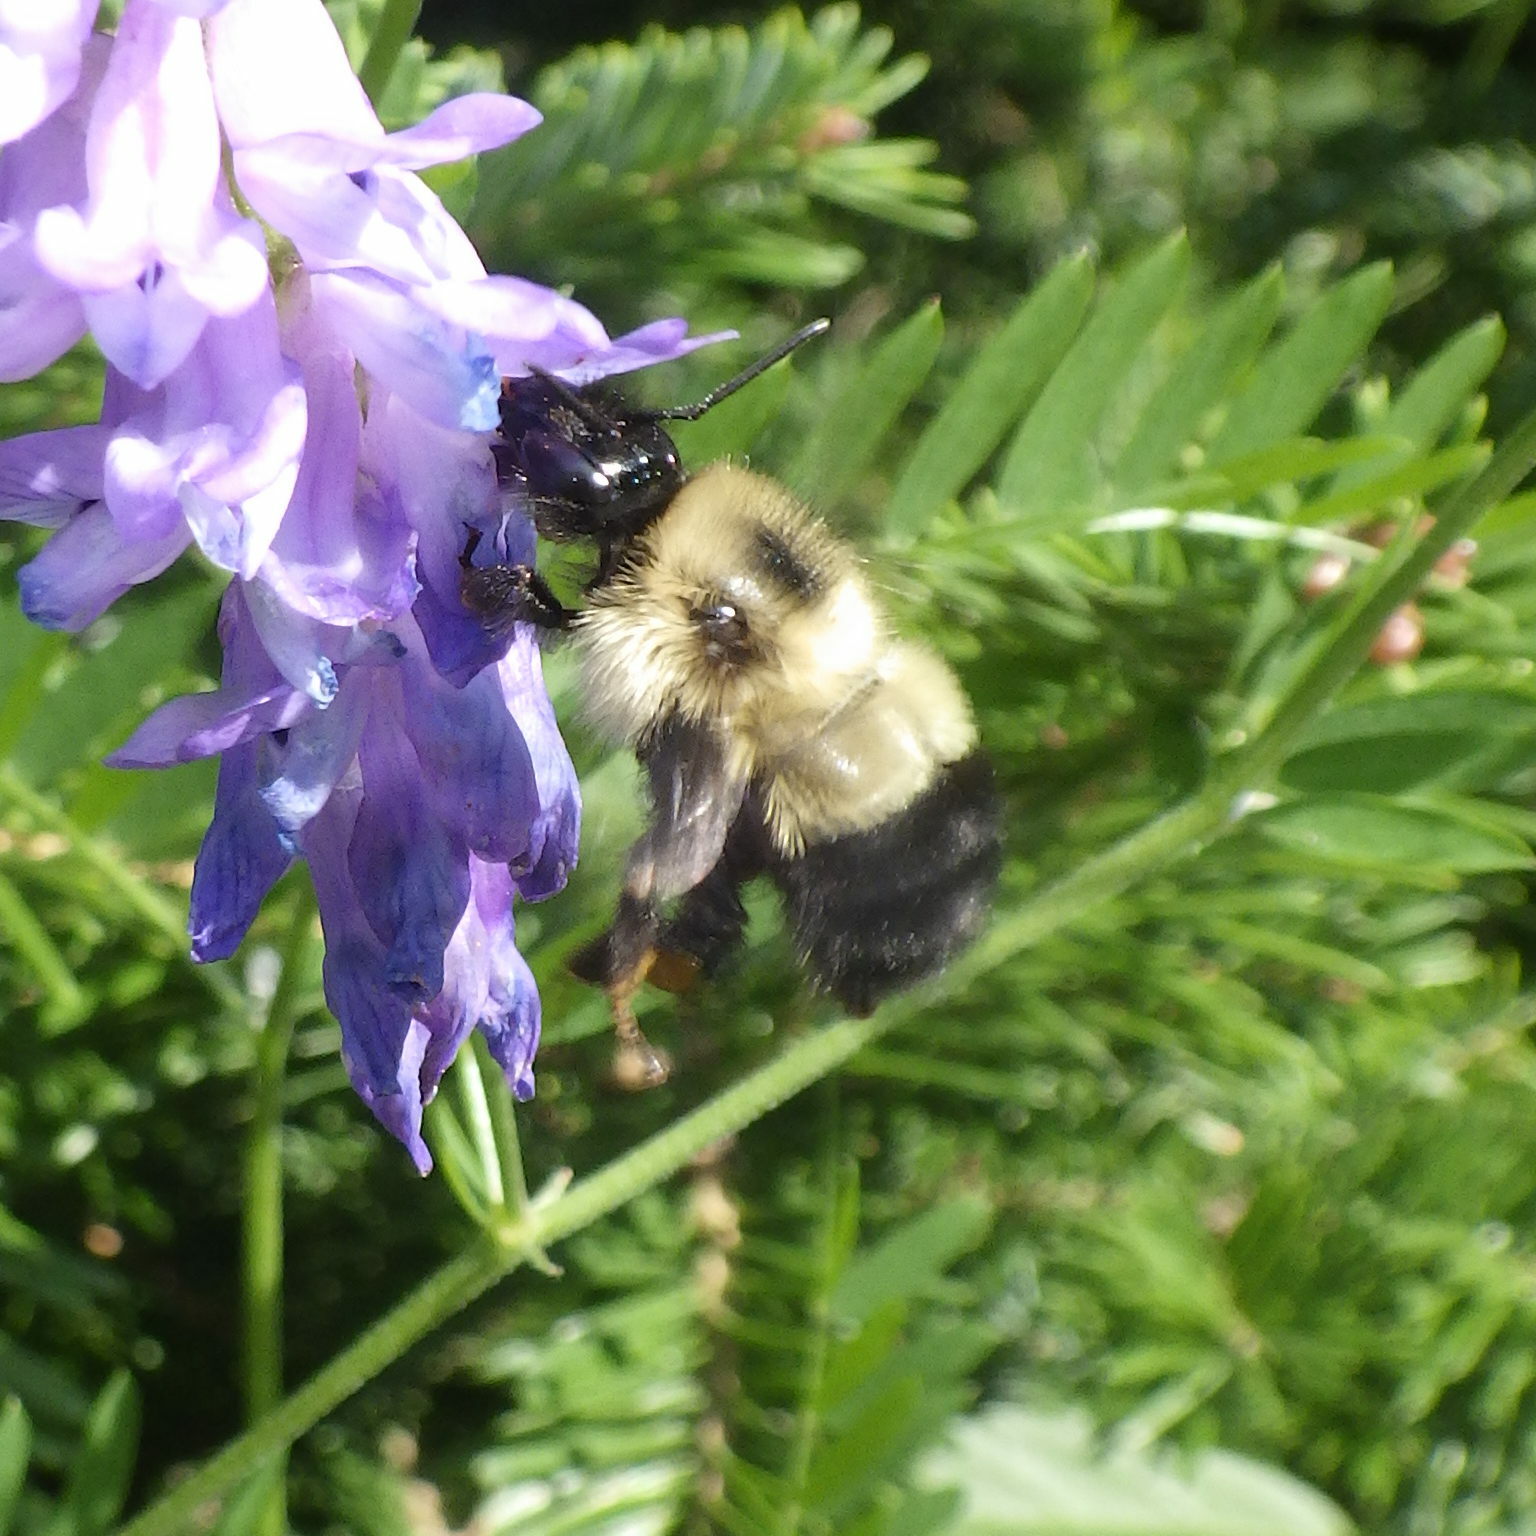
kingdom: Animalia
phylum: Arthropoda
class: Insecta
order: Hymenoptera
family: Apidae
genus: Pyrobombus
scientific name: Pyrobombus
